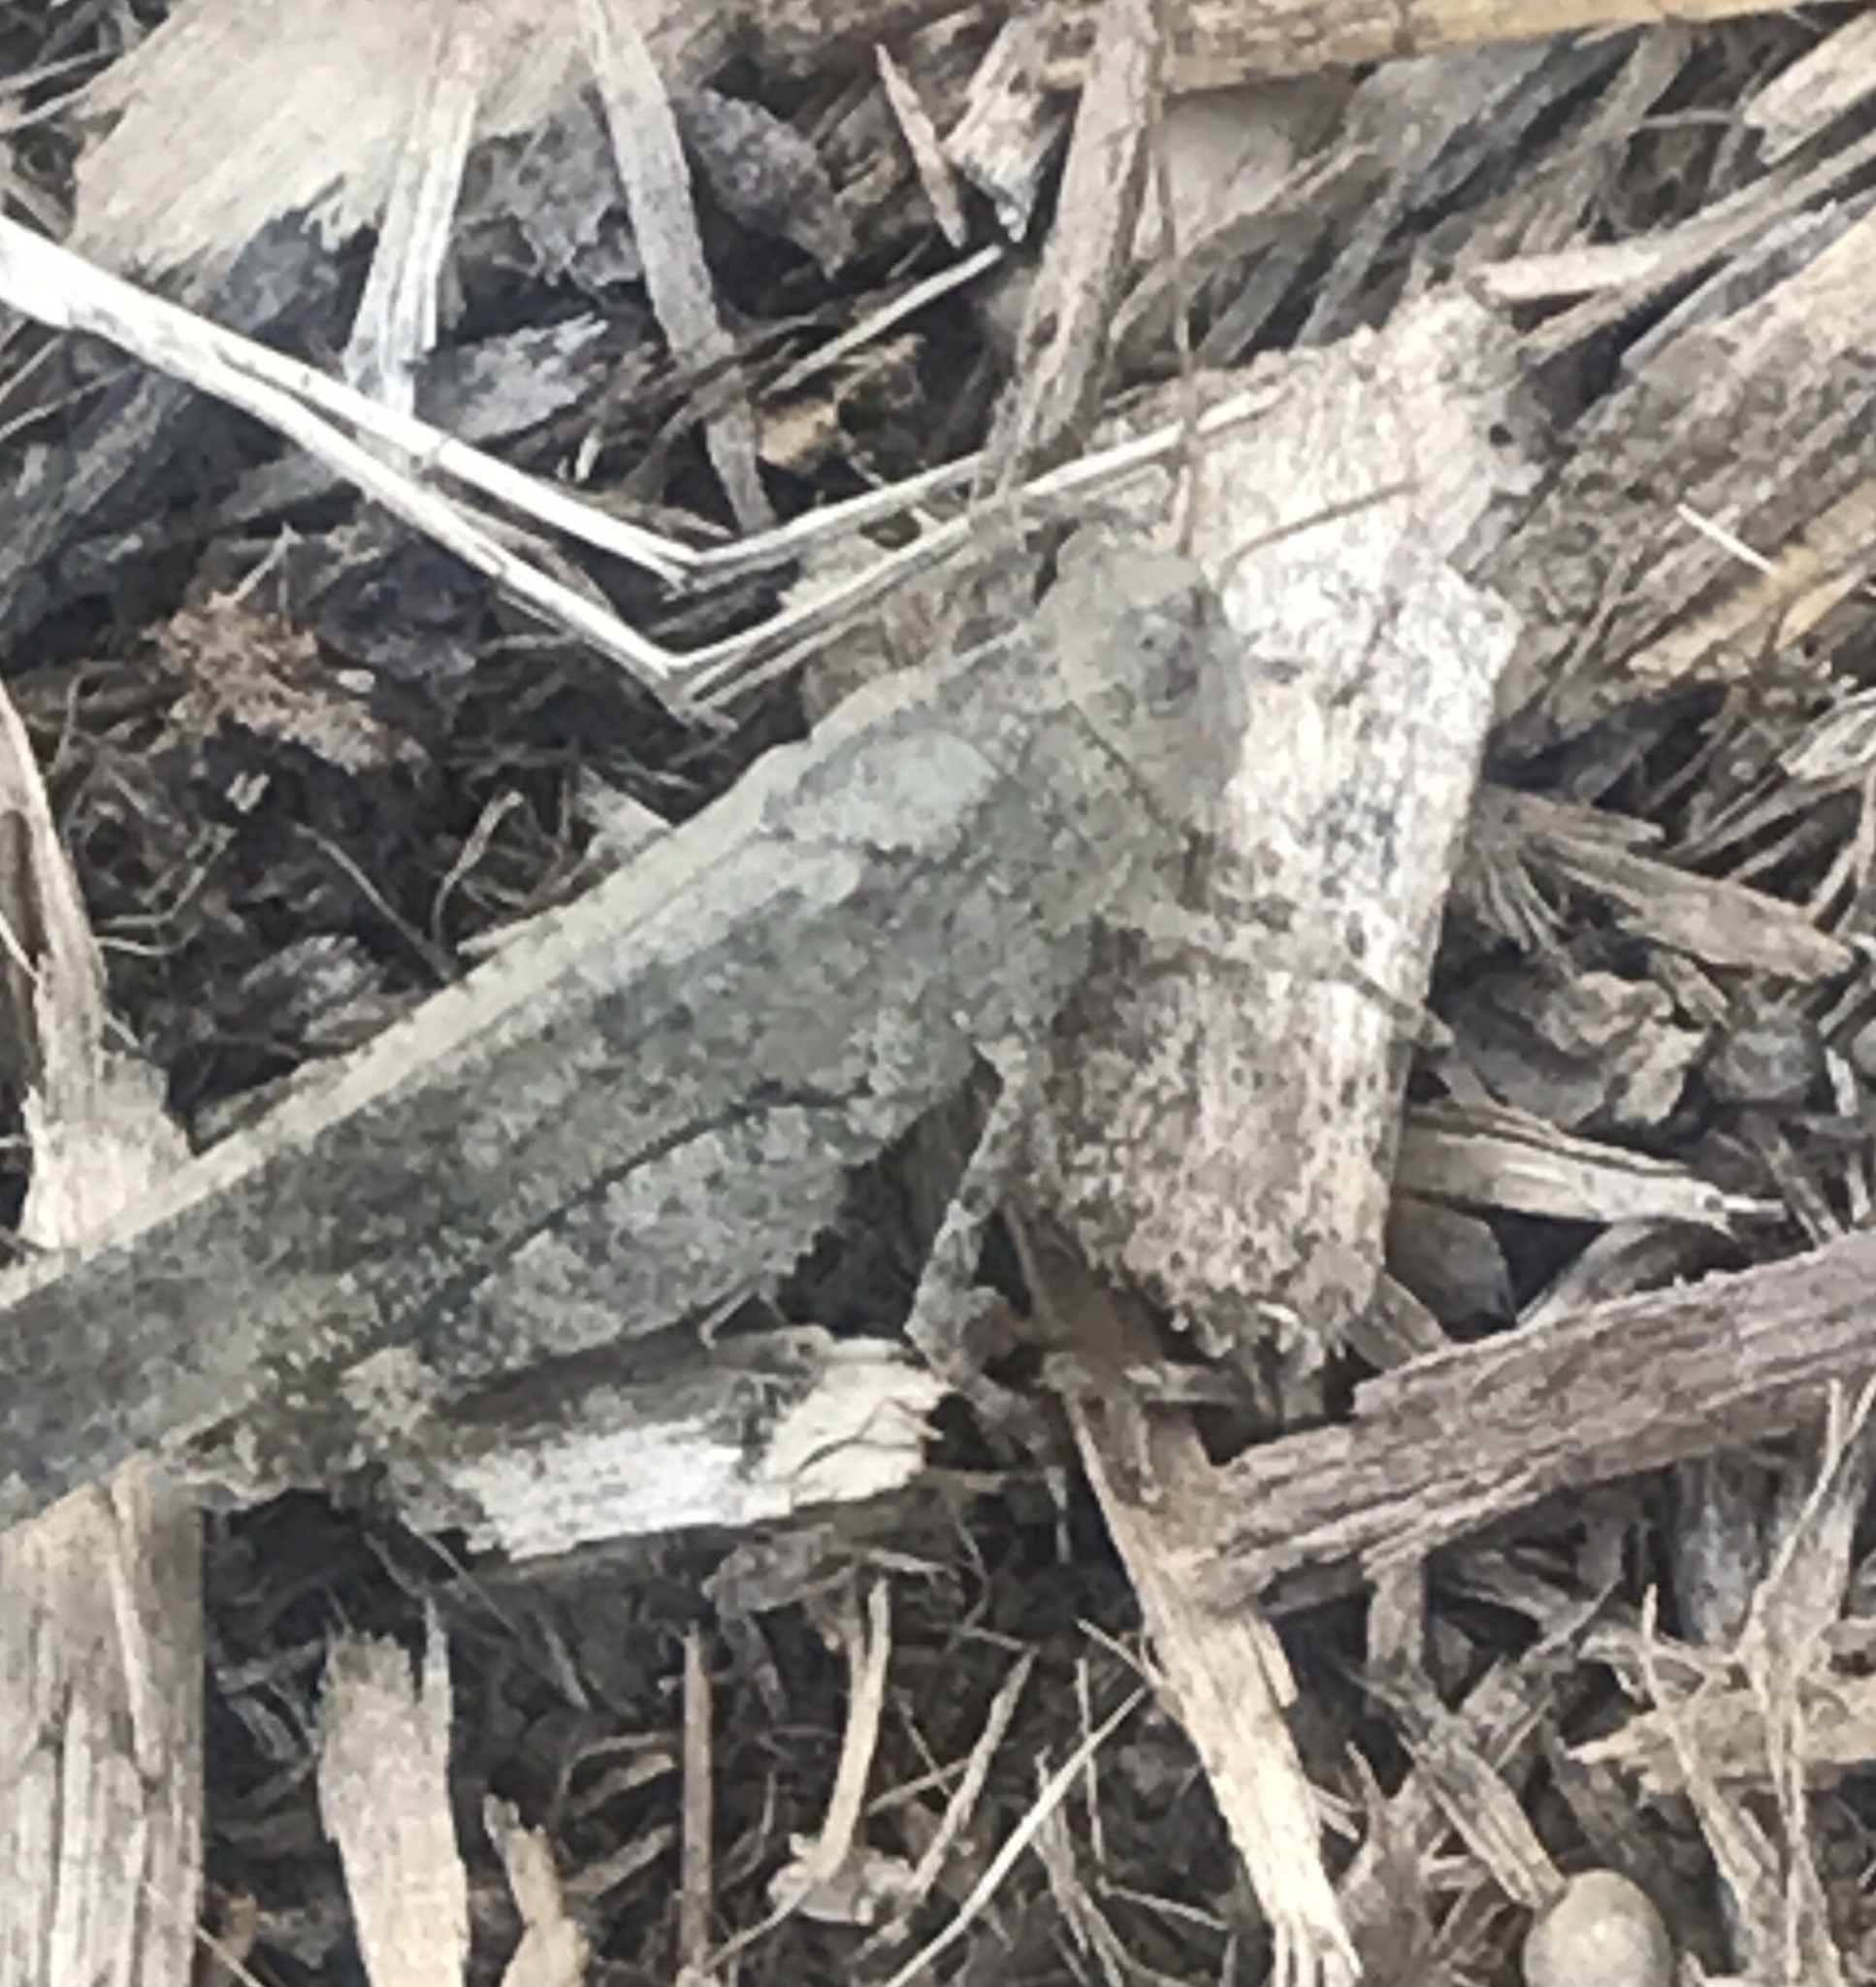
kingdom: Animalia
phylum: Arthropoda
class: Insecta
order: Orthoptera
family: Acrididae
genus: Dissosteira
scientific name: Dissosteira carolina
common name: Carolina grasshopper
